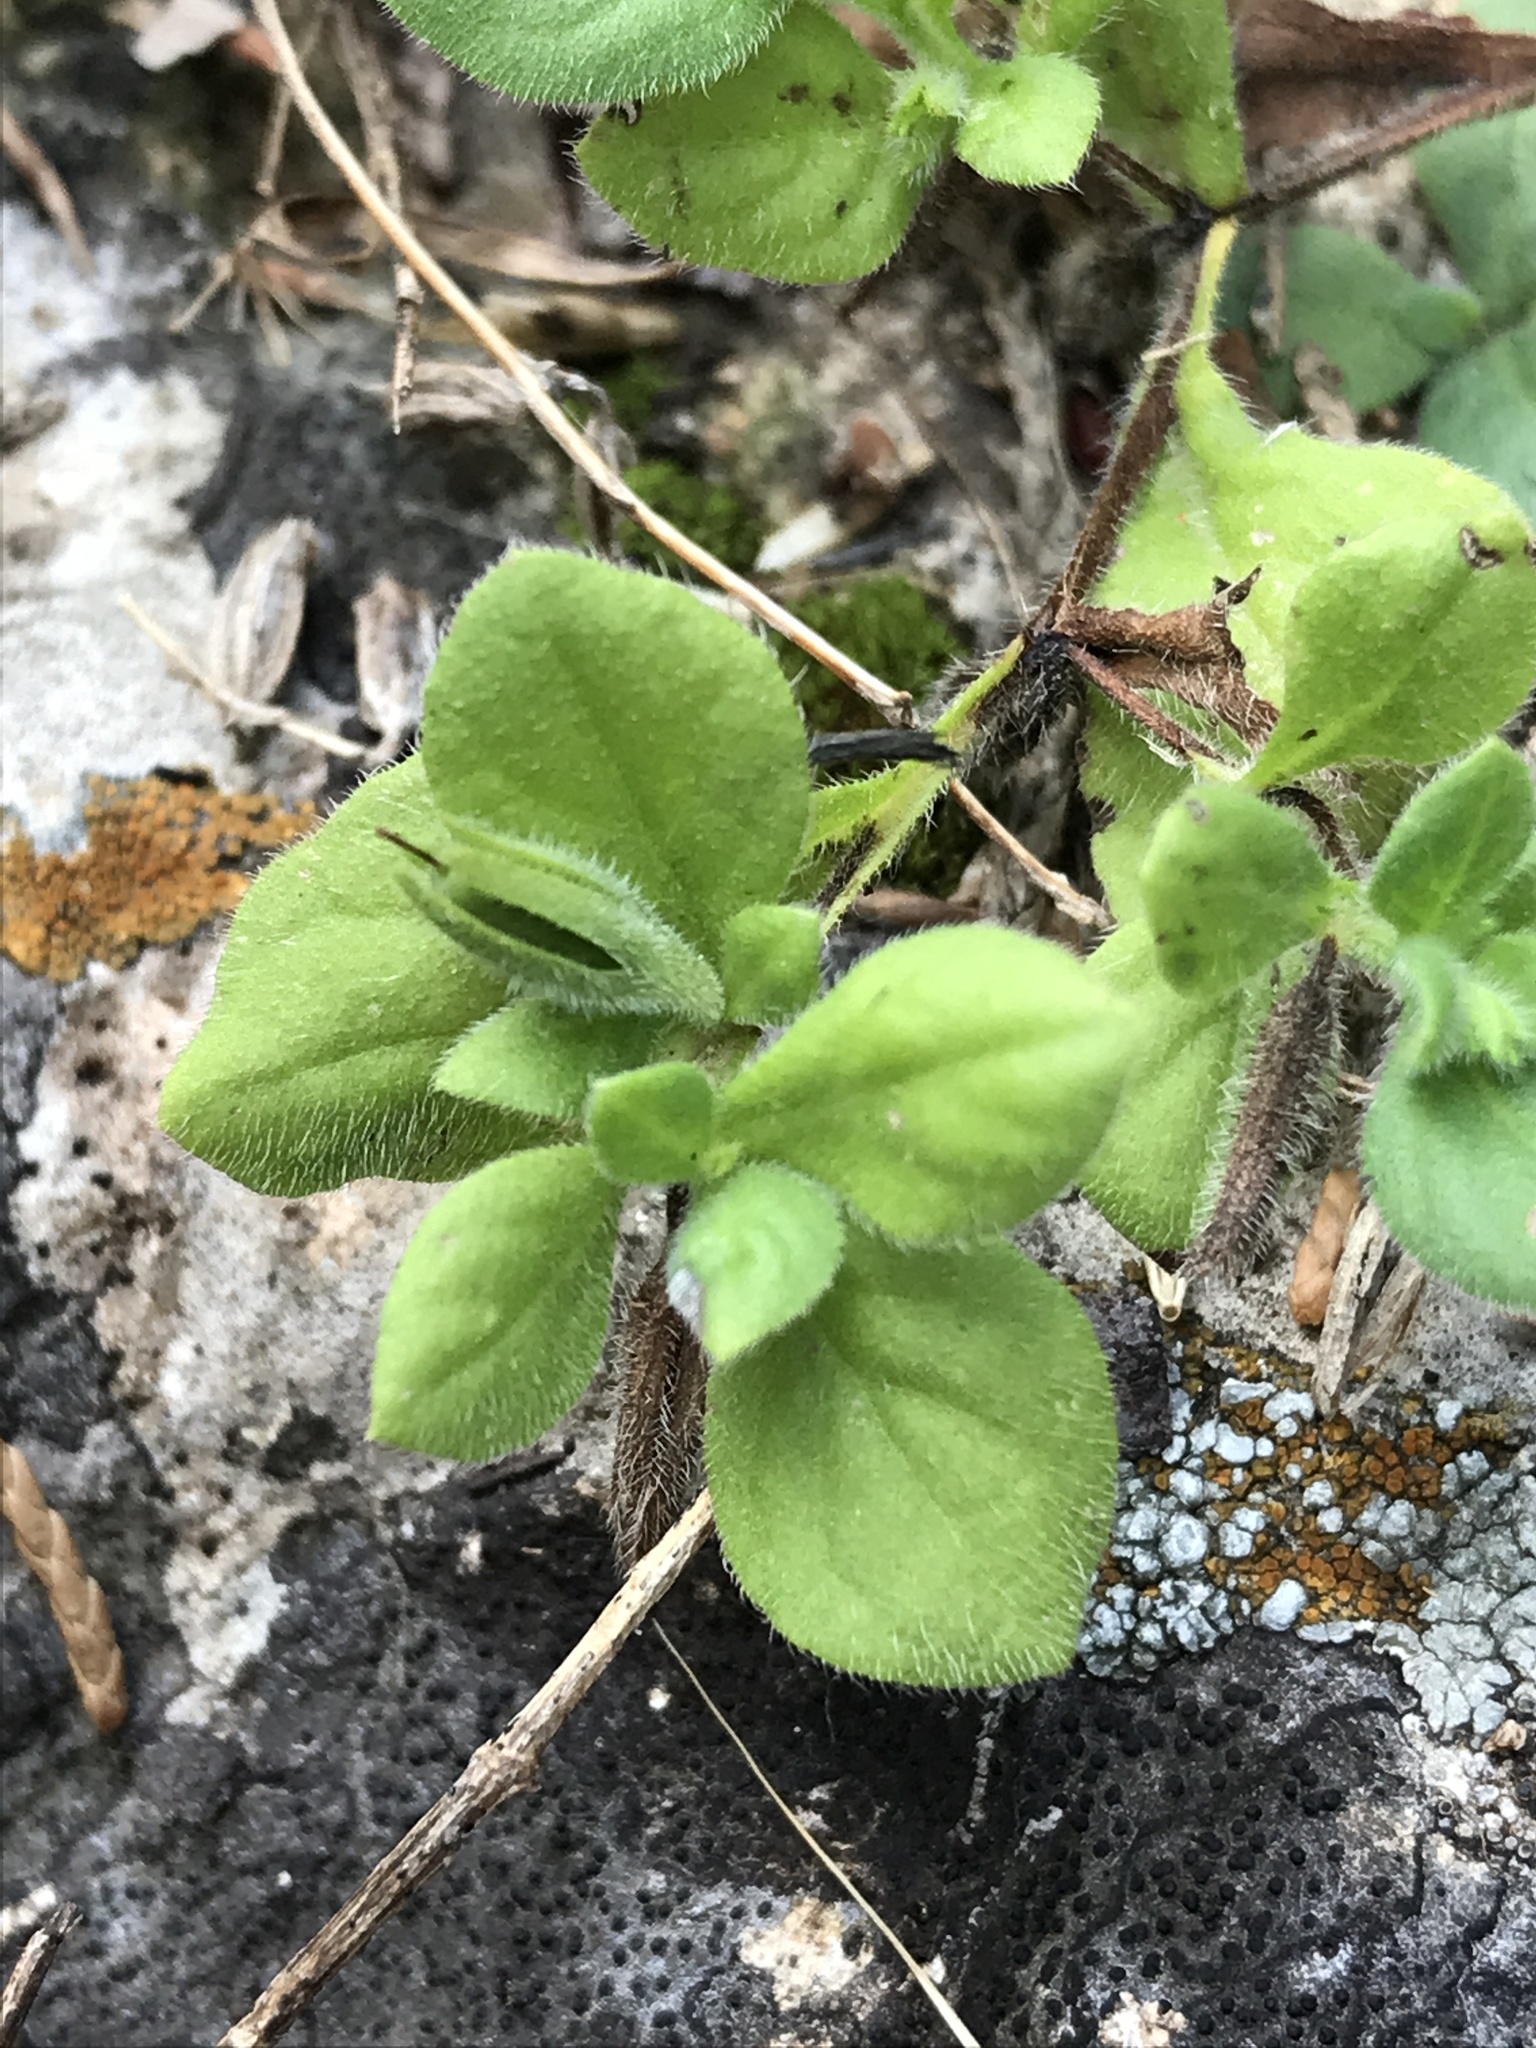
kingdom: Plantae
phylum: Tracheophyta
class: Magnoliopsida
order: Boraginales
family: Namaceae
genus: Nama
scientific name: Nama jamaicensis
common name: Jamaicanweed
